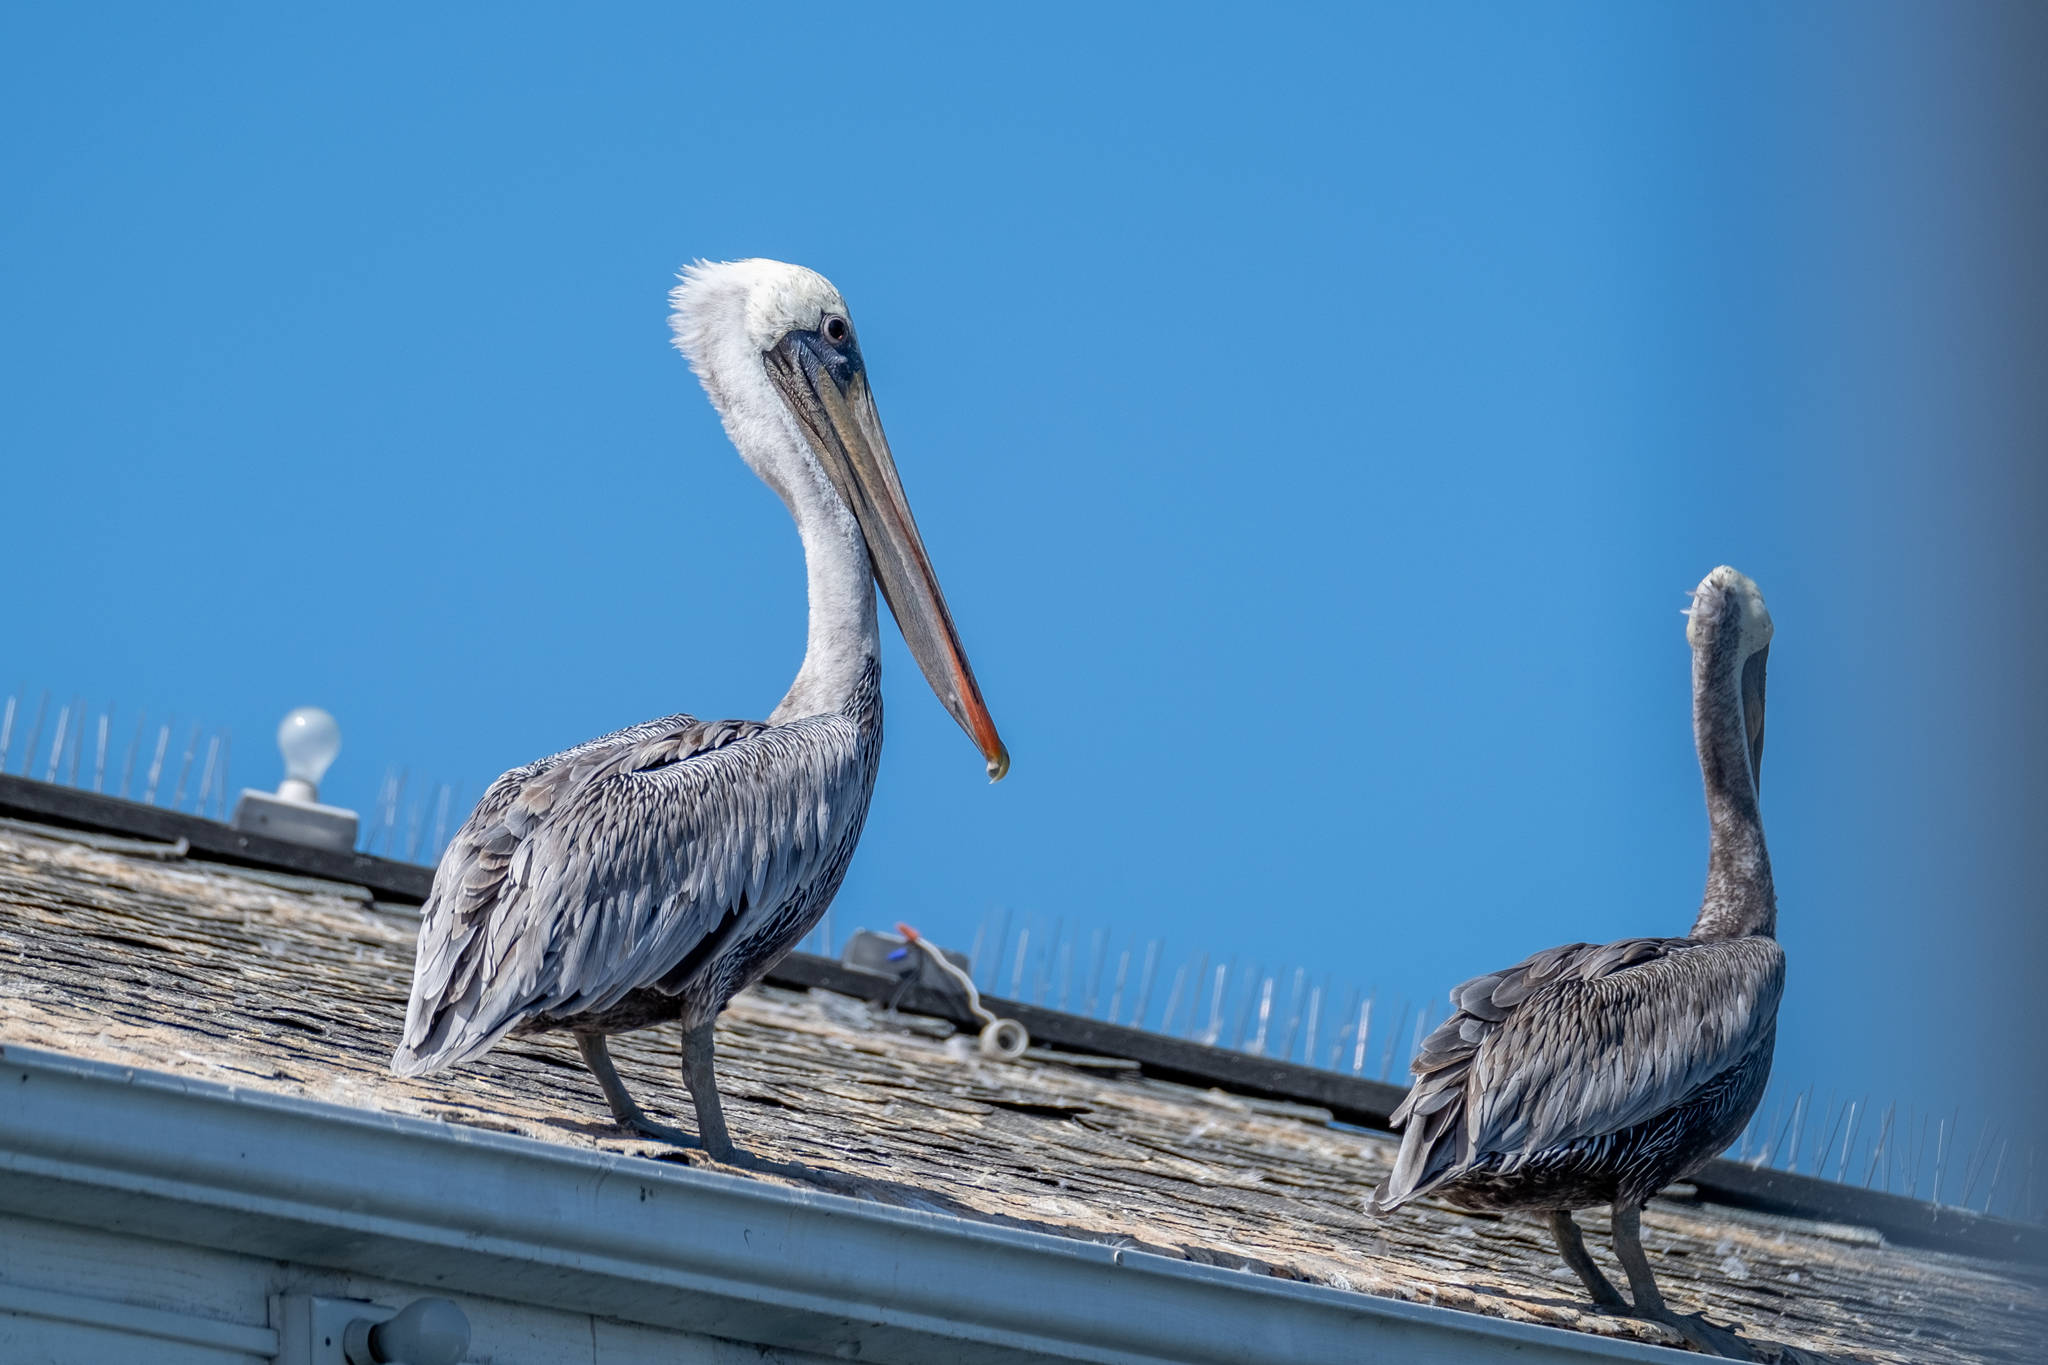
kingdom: Animalia
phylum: Chordata
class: Aves
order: Pelecaniformes
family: Pelecanidae
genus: Pelecanus
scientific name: Pelecanus occidentalis
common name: Brown pelican
